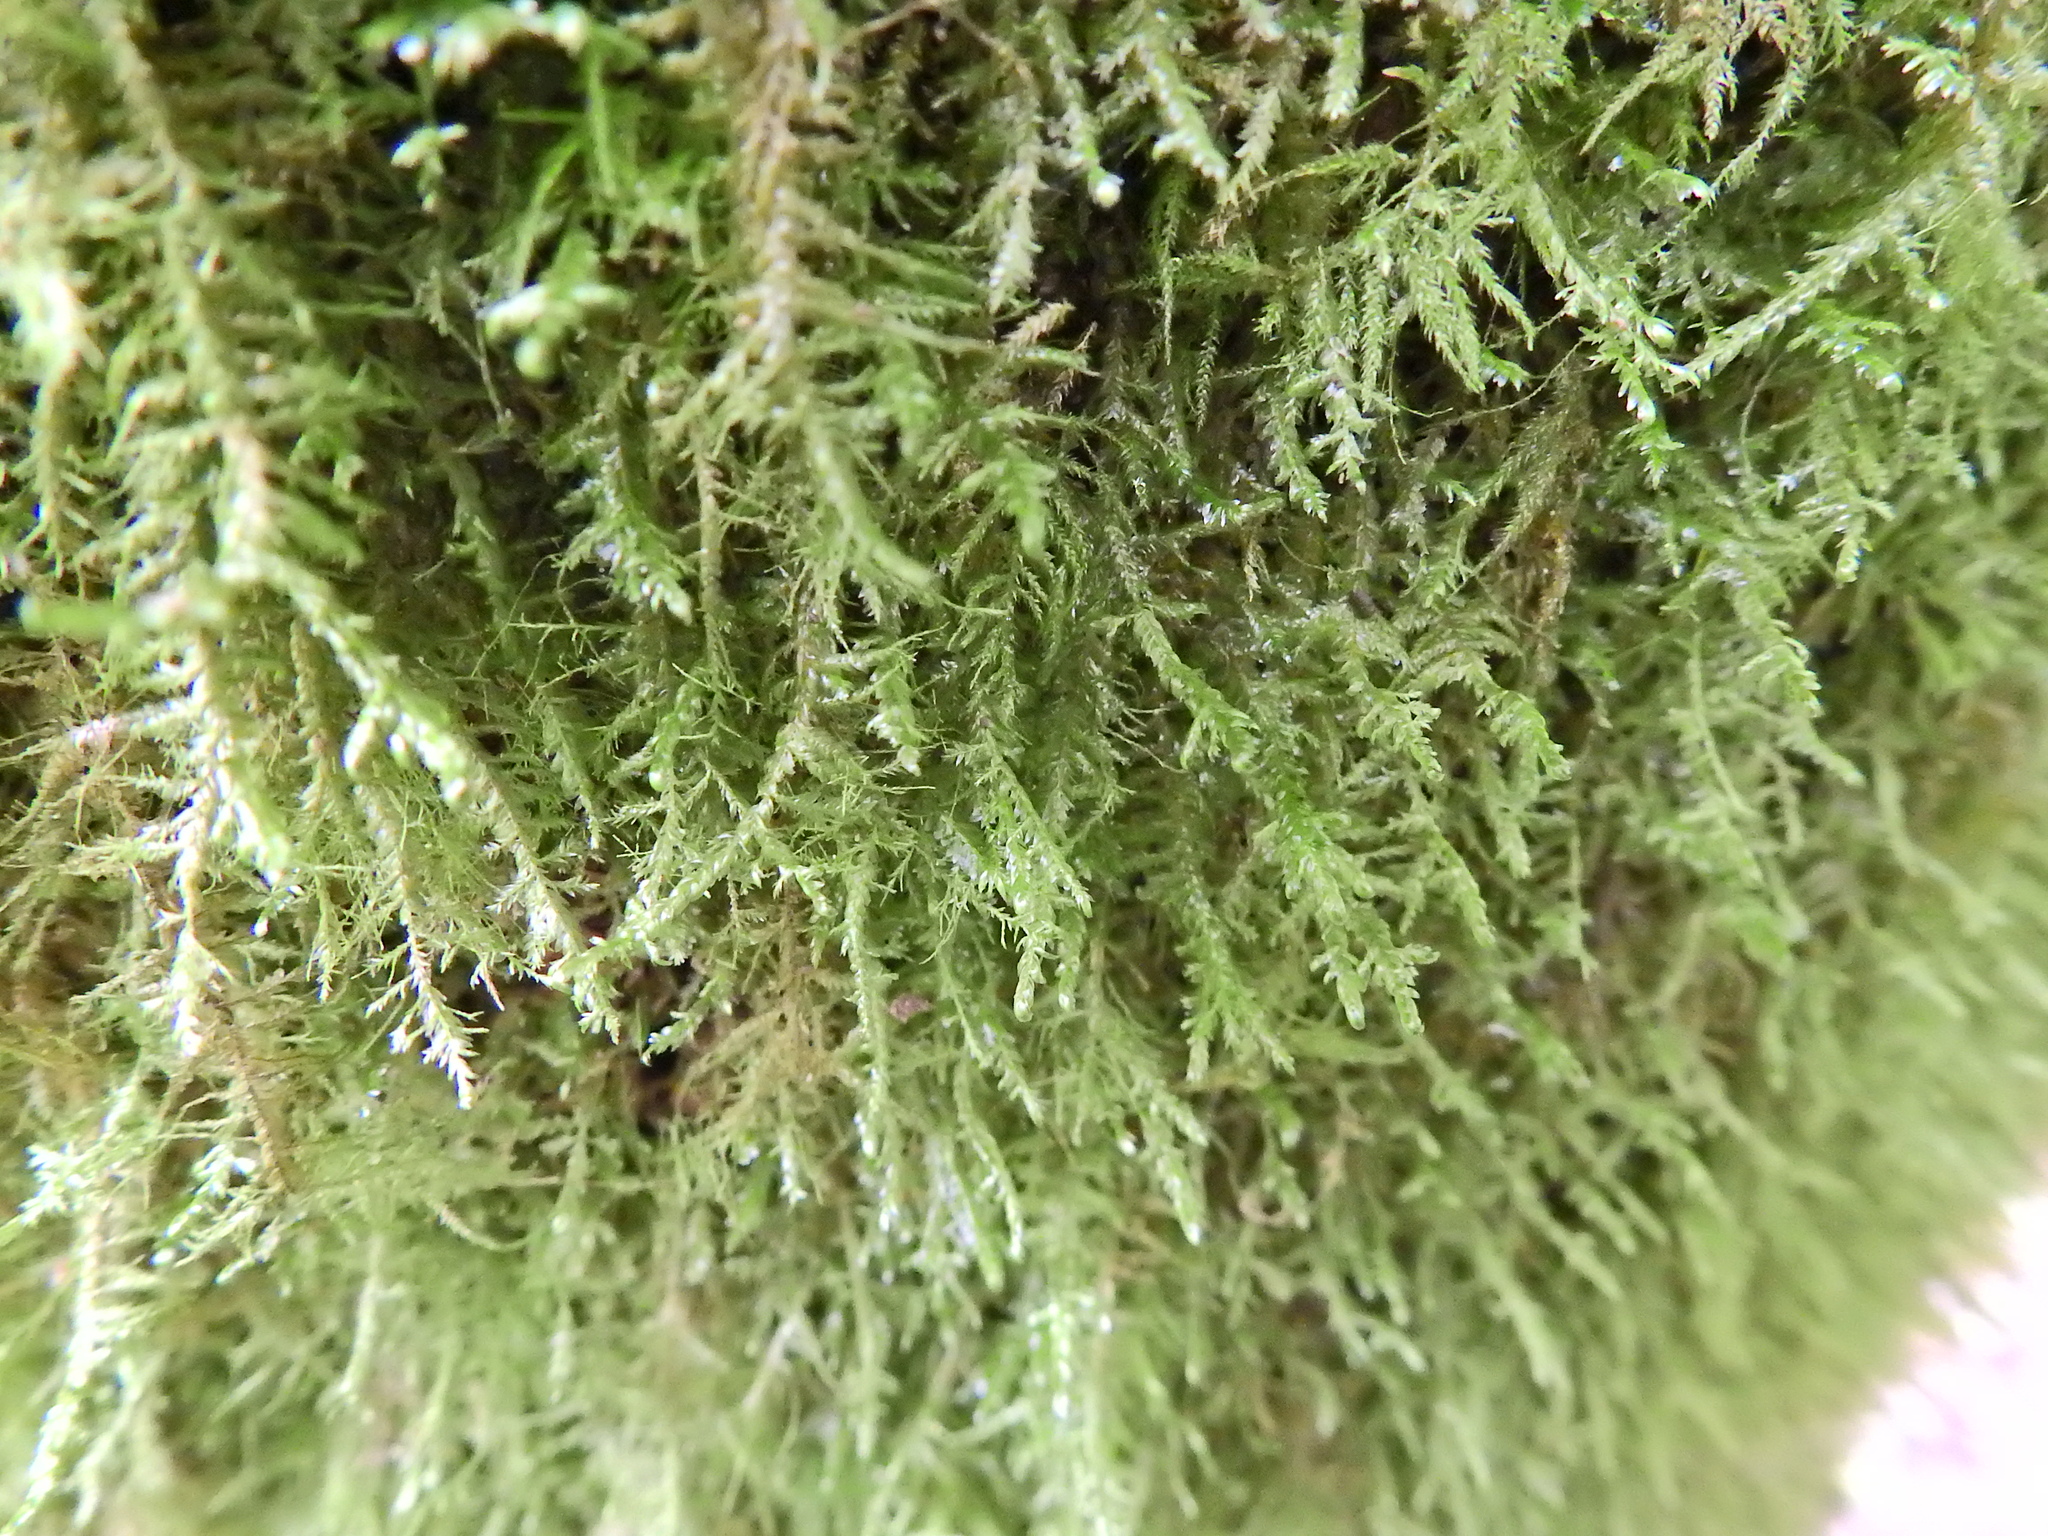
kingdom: Plantae
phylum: Bryophyta
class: Bryopsida
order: Hypnales
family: Neckeraceae
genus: Alleniella
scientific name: Alleniella complanata
